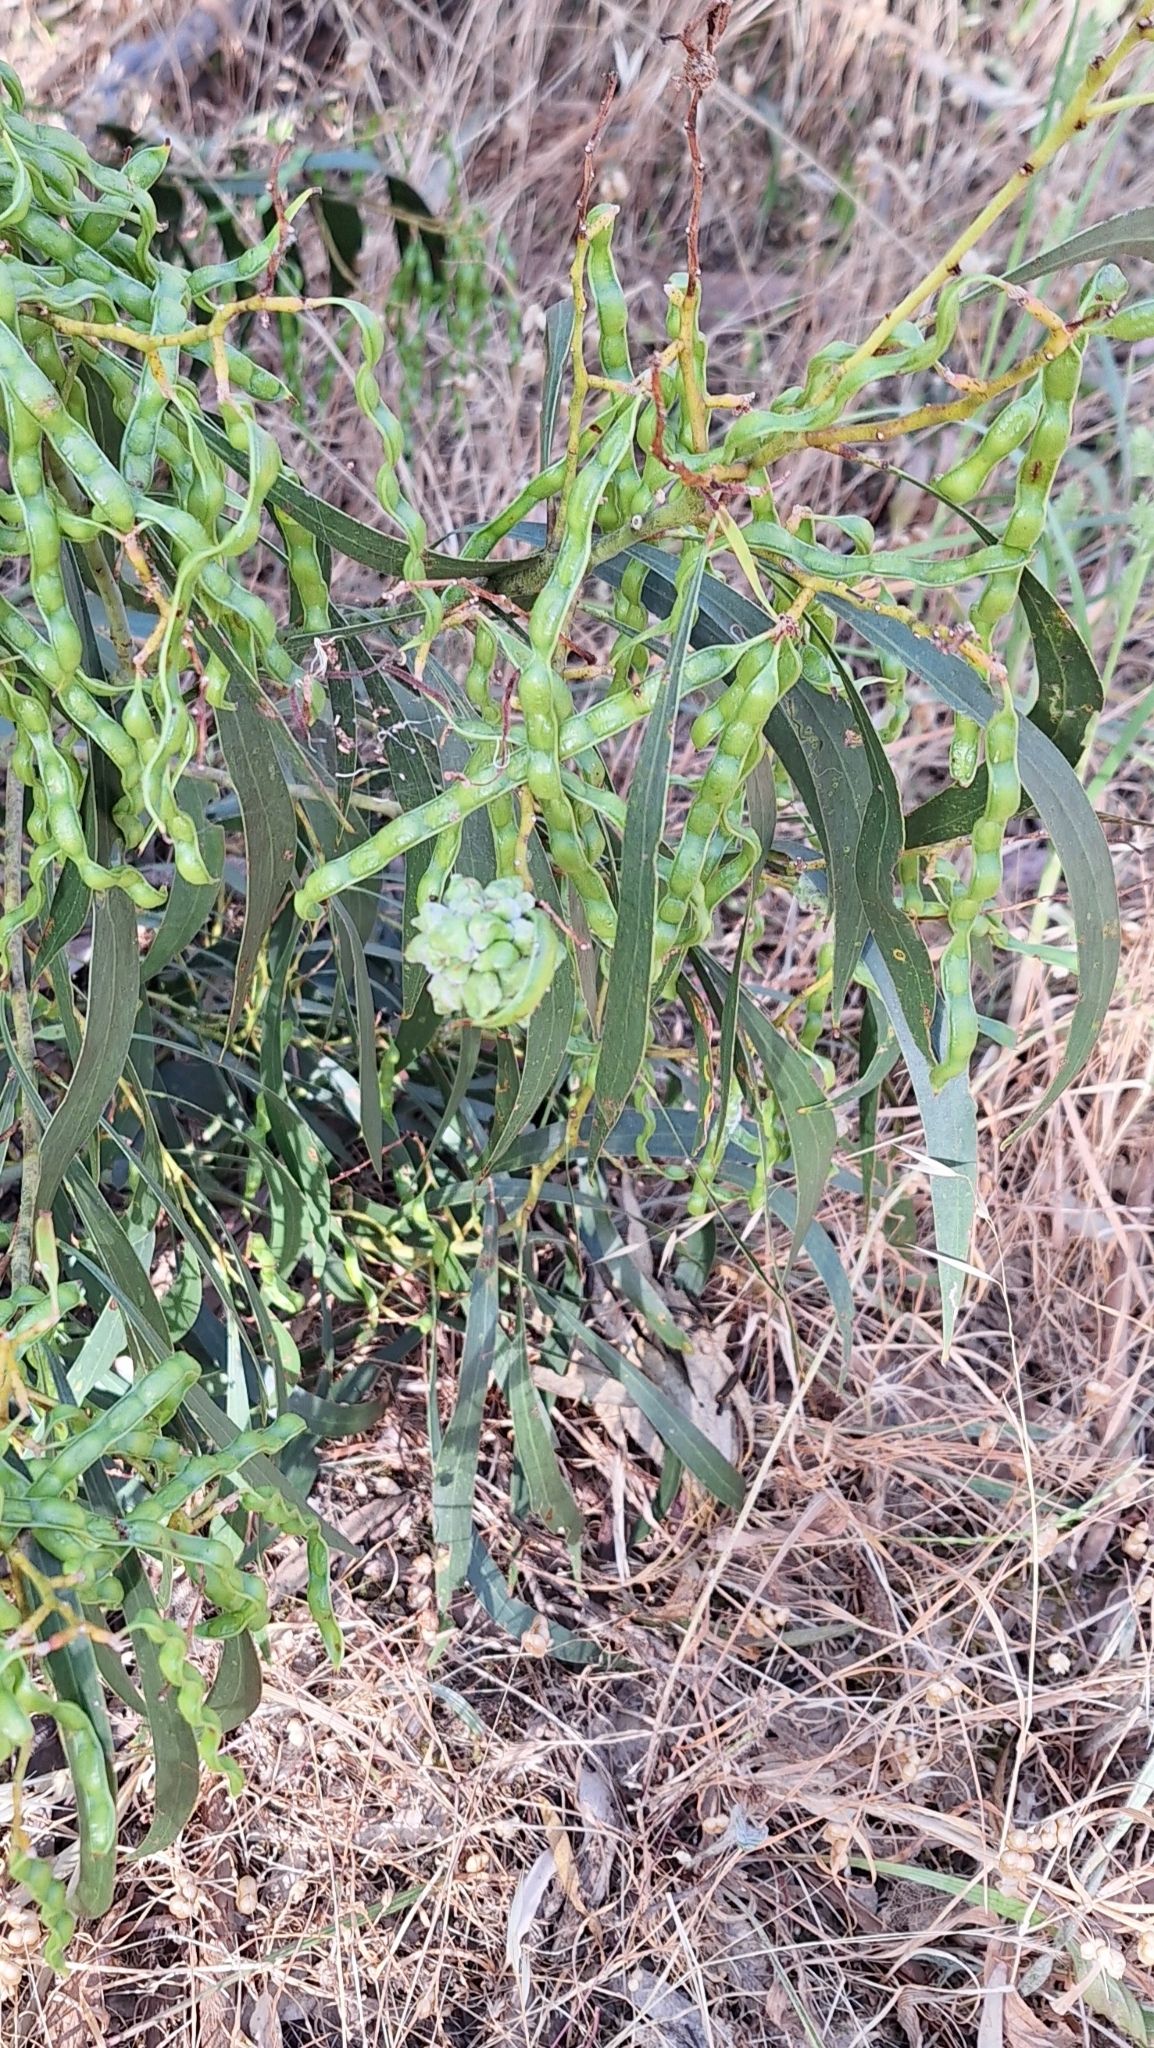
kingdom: Plantae
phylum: Tracheophyta
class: Magnoliopsida
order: Fabales
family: Fabaceae
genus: Acacia
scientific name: Acacia pycnantha
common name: Golden wattle
